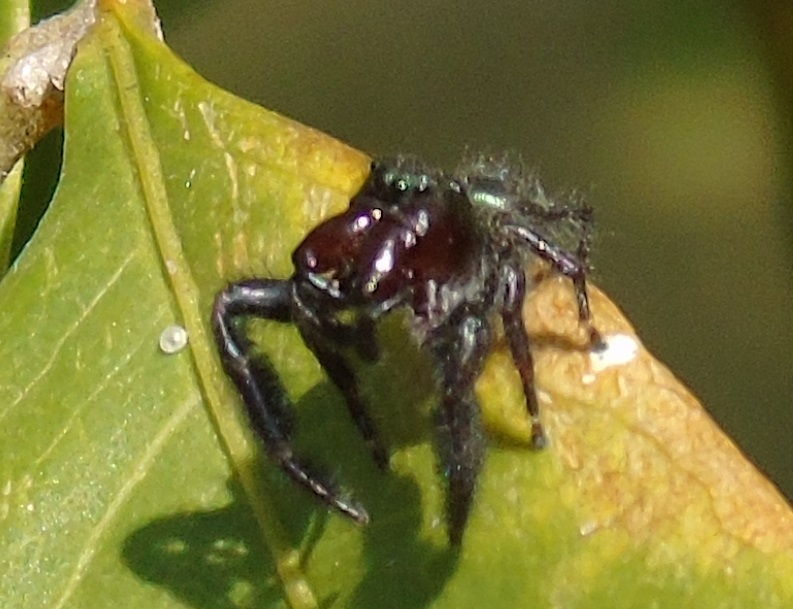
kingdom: Animalia
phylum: Arthropoda
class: Arachnida
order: Araneae
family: Salticidae
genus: Paraphidippus
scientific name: Paraphidippus fartilis
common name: Jumping spiders
